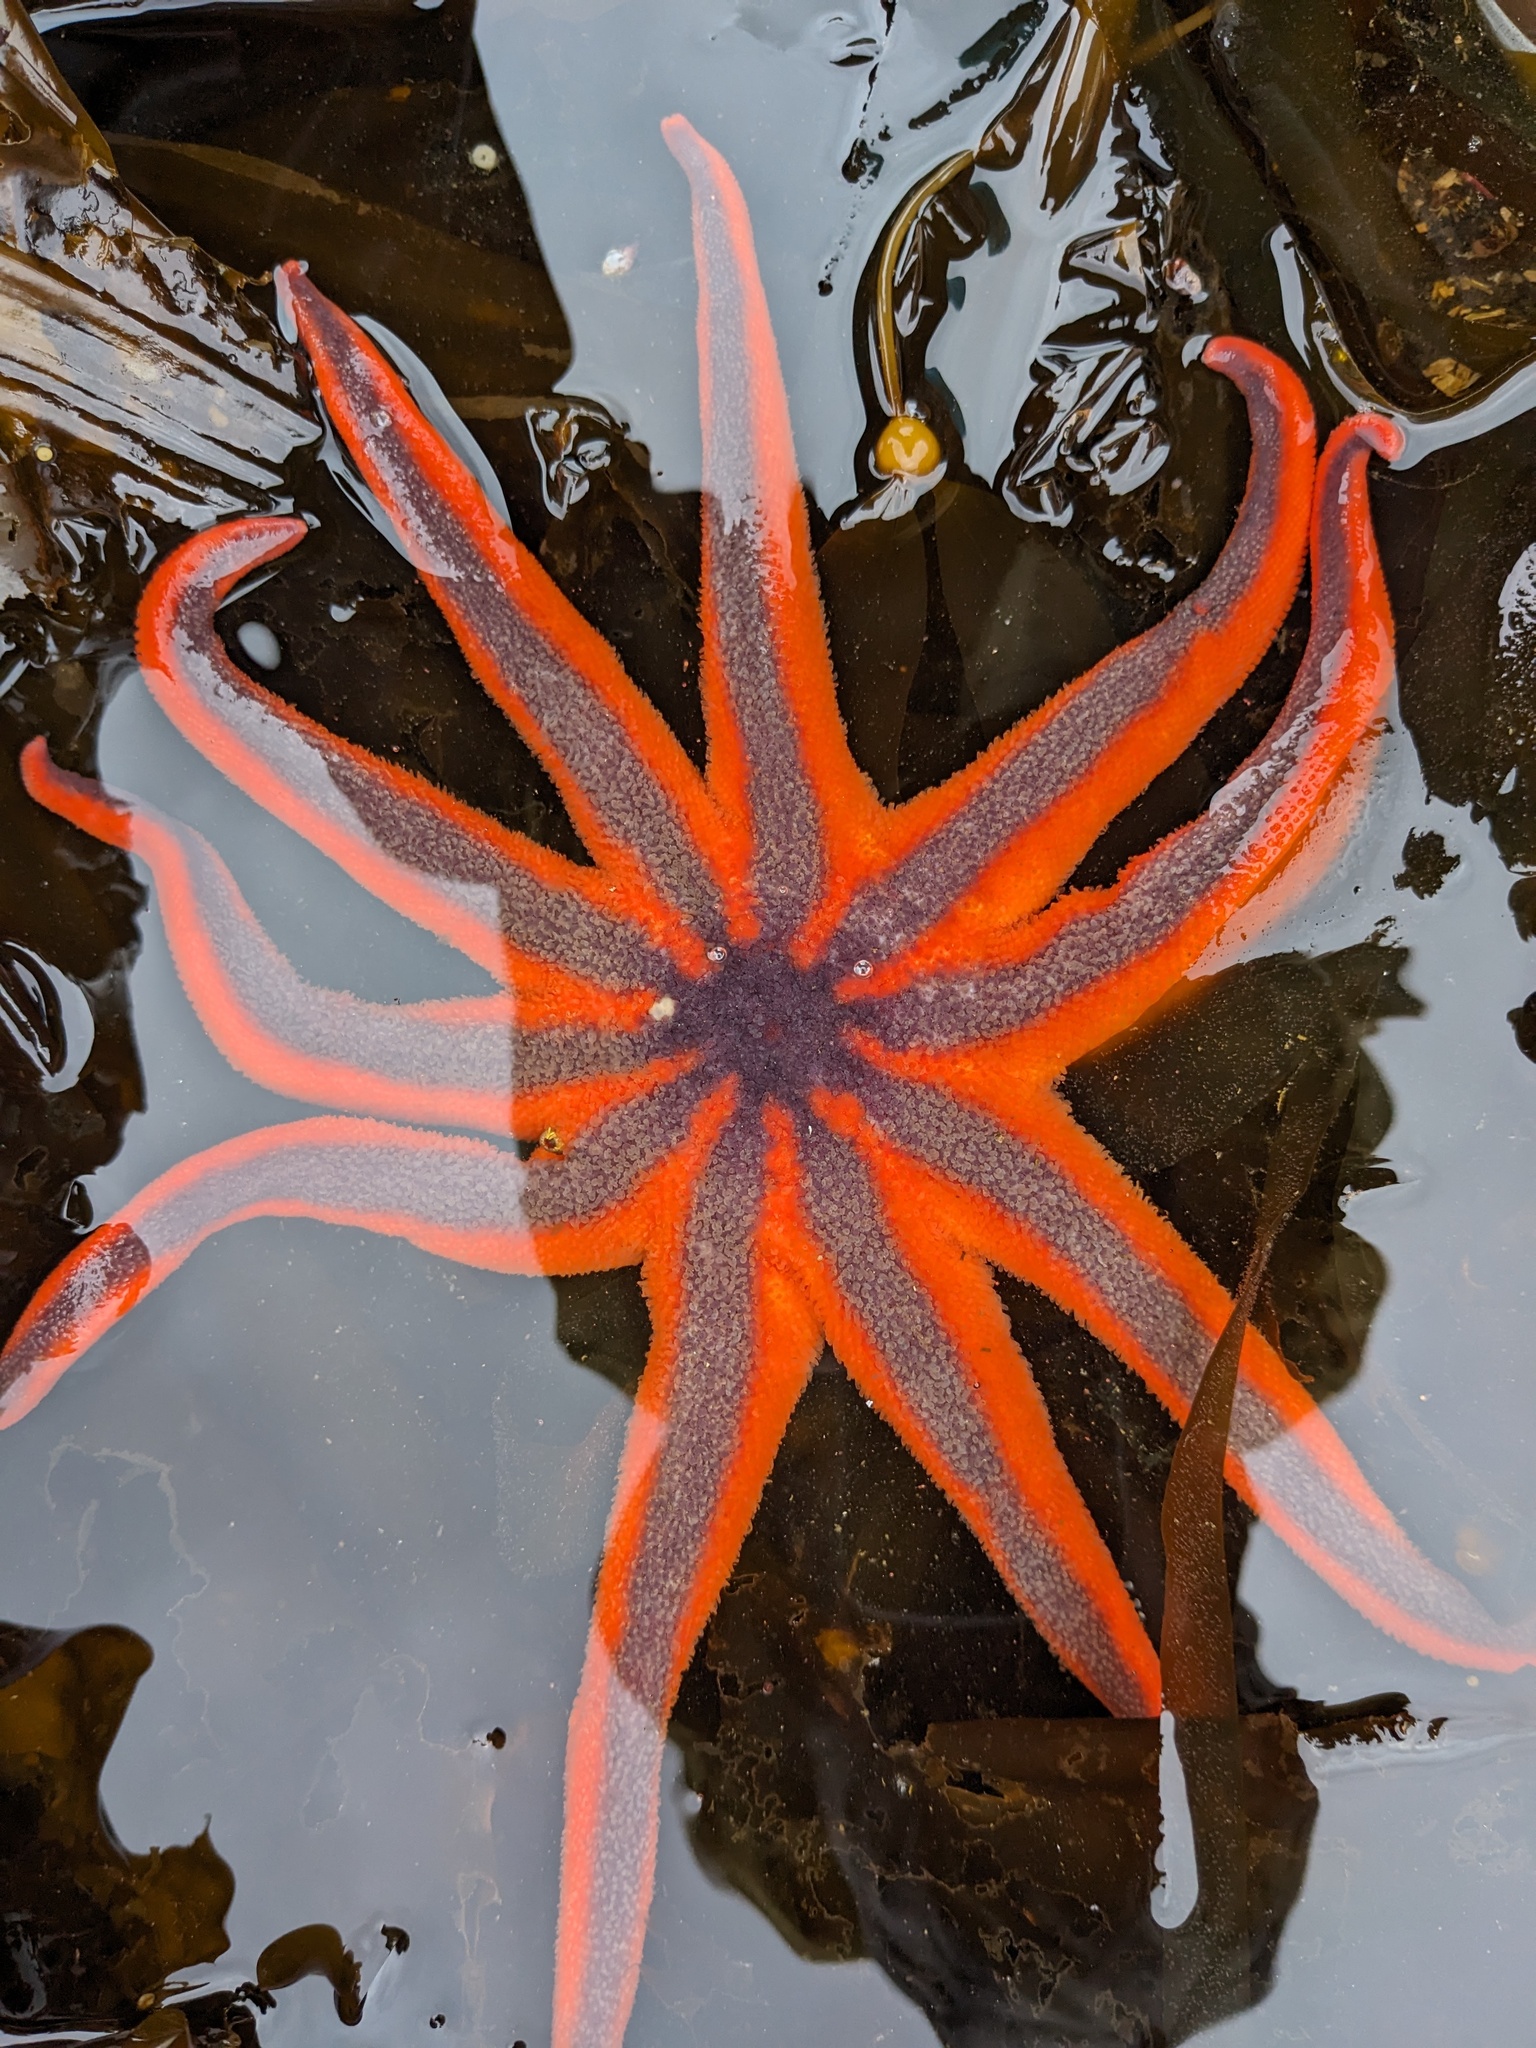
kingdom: Animalia
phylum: Echinodermata
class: Asteroidea
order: Valvatida
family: Solasteridae
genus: Solaster
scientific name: Solaster stimpsoni
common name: Orange sun star
